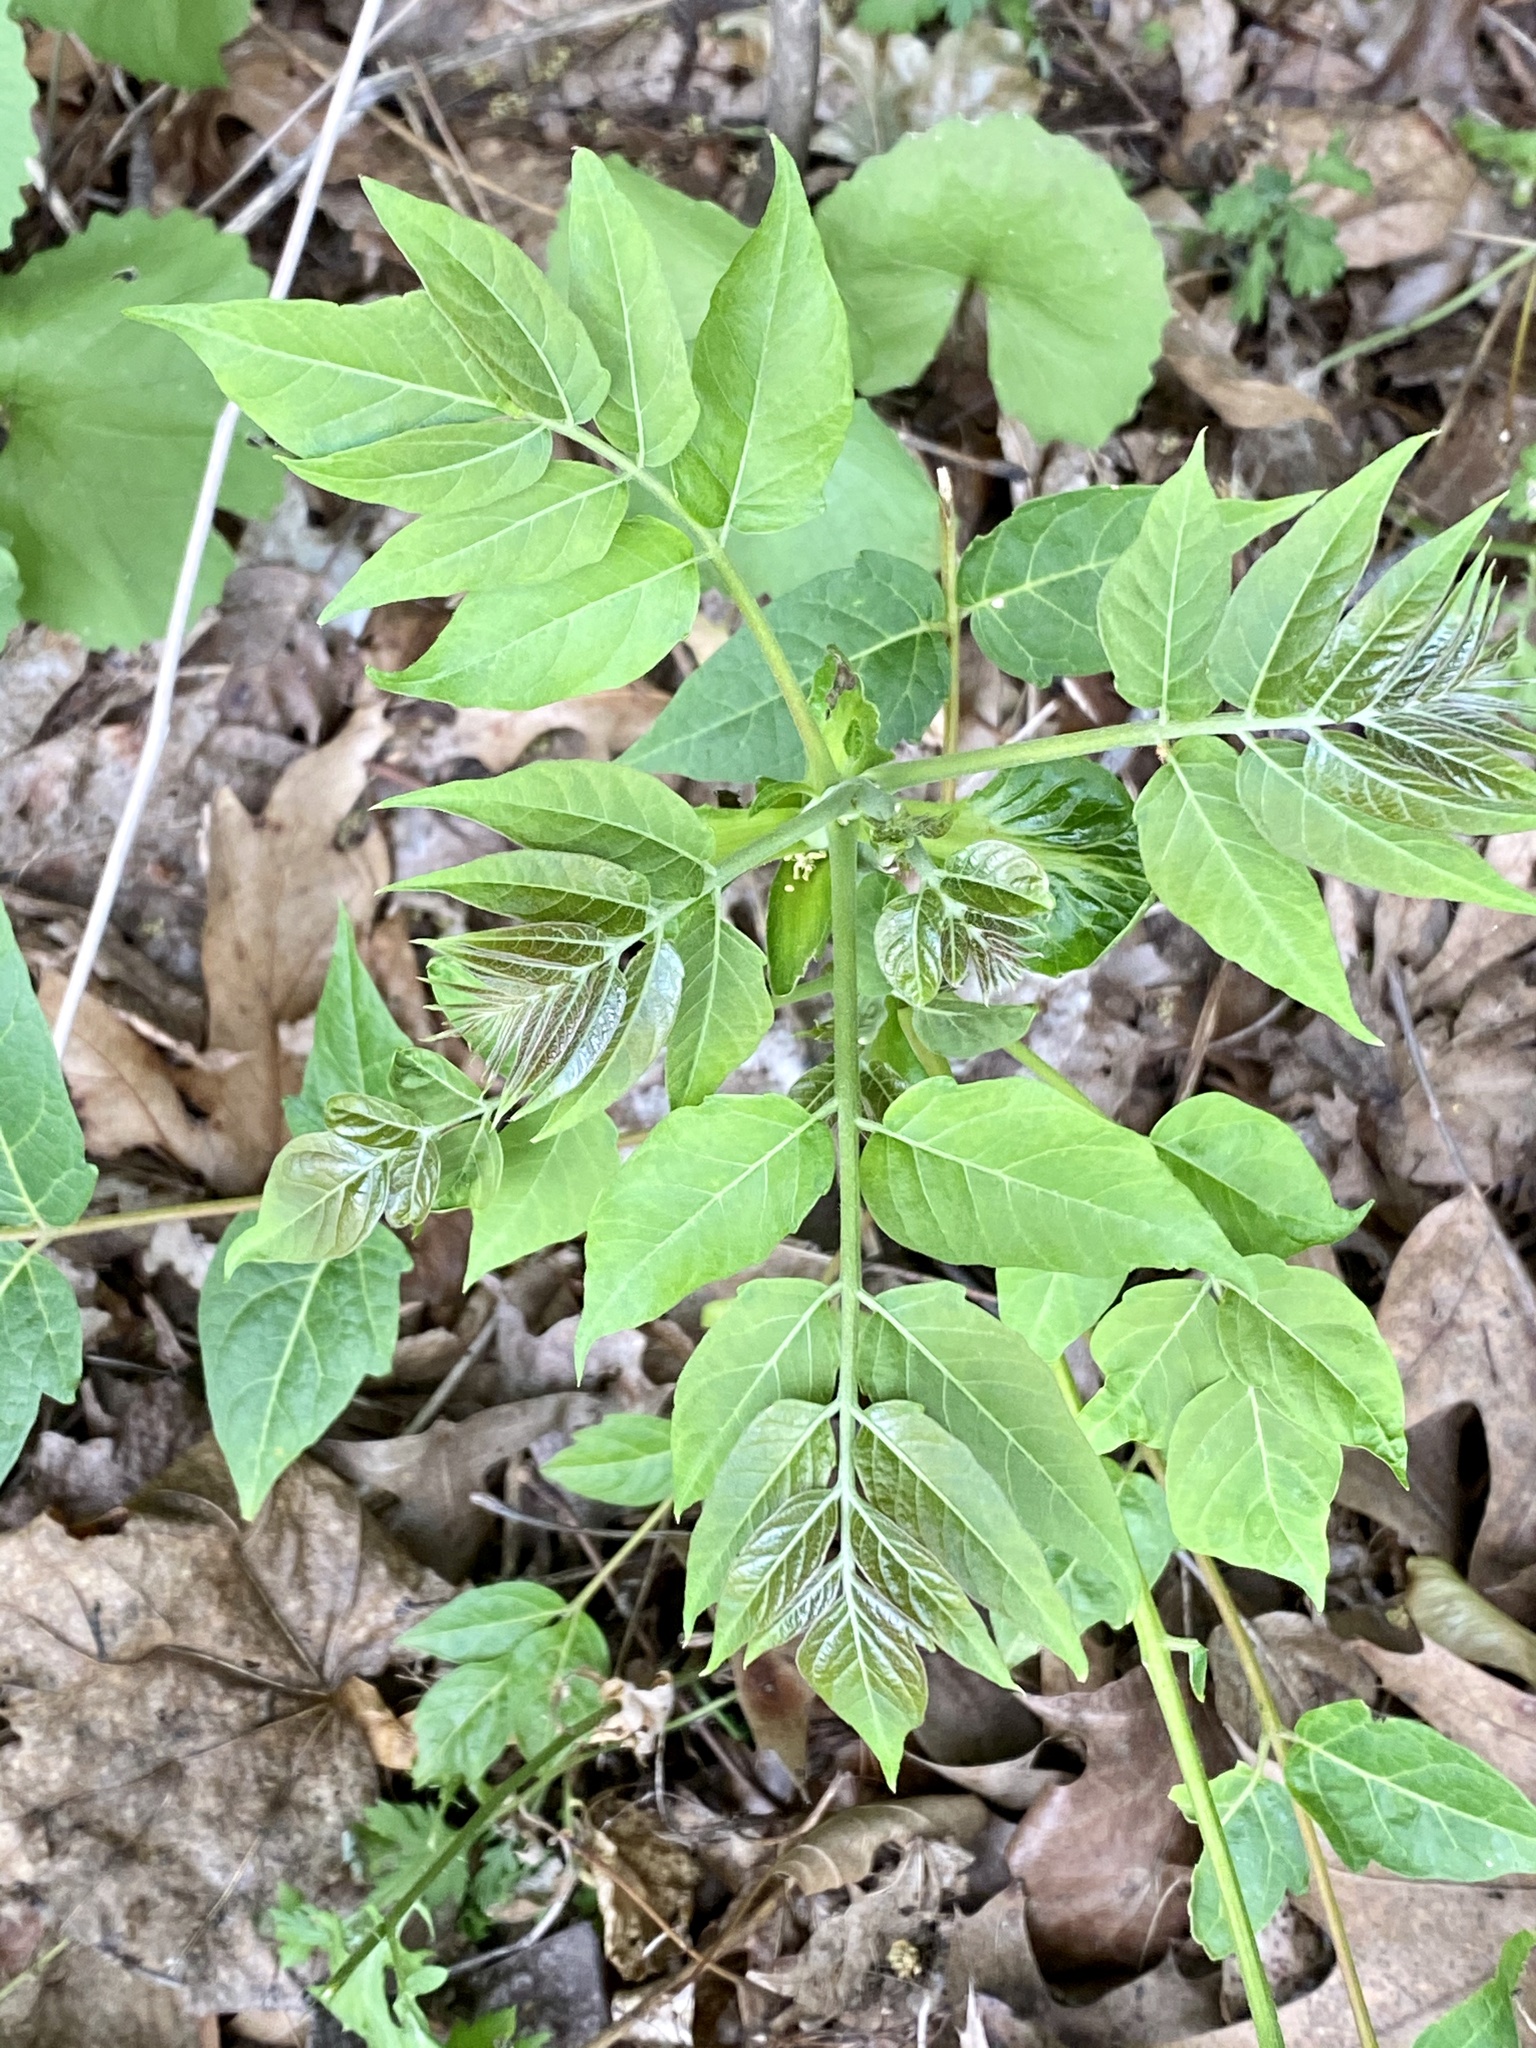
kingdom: Plantae
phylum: Tracheophyta
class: Magnoliopsida
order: Sapindales
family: Simaroubaceae
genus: Ailanthus
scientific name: Ailanthus altissima
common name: Tree-of-heaven
